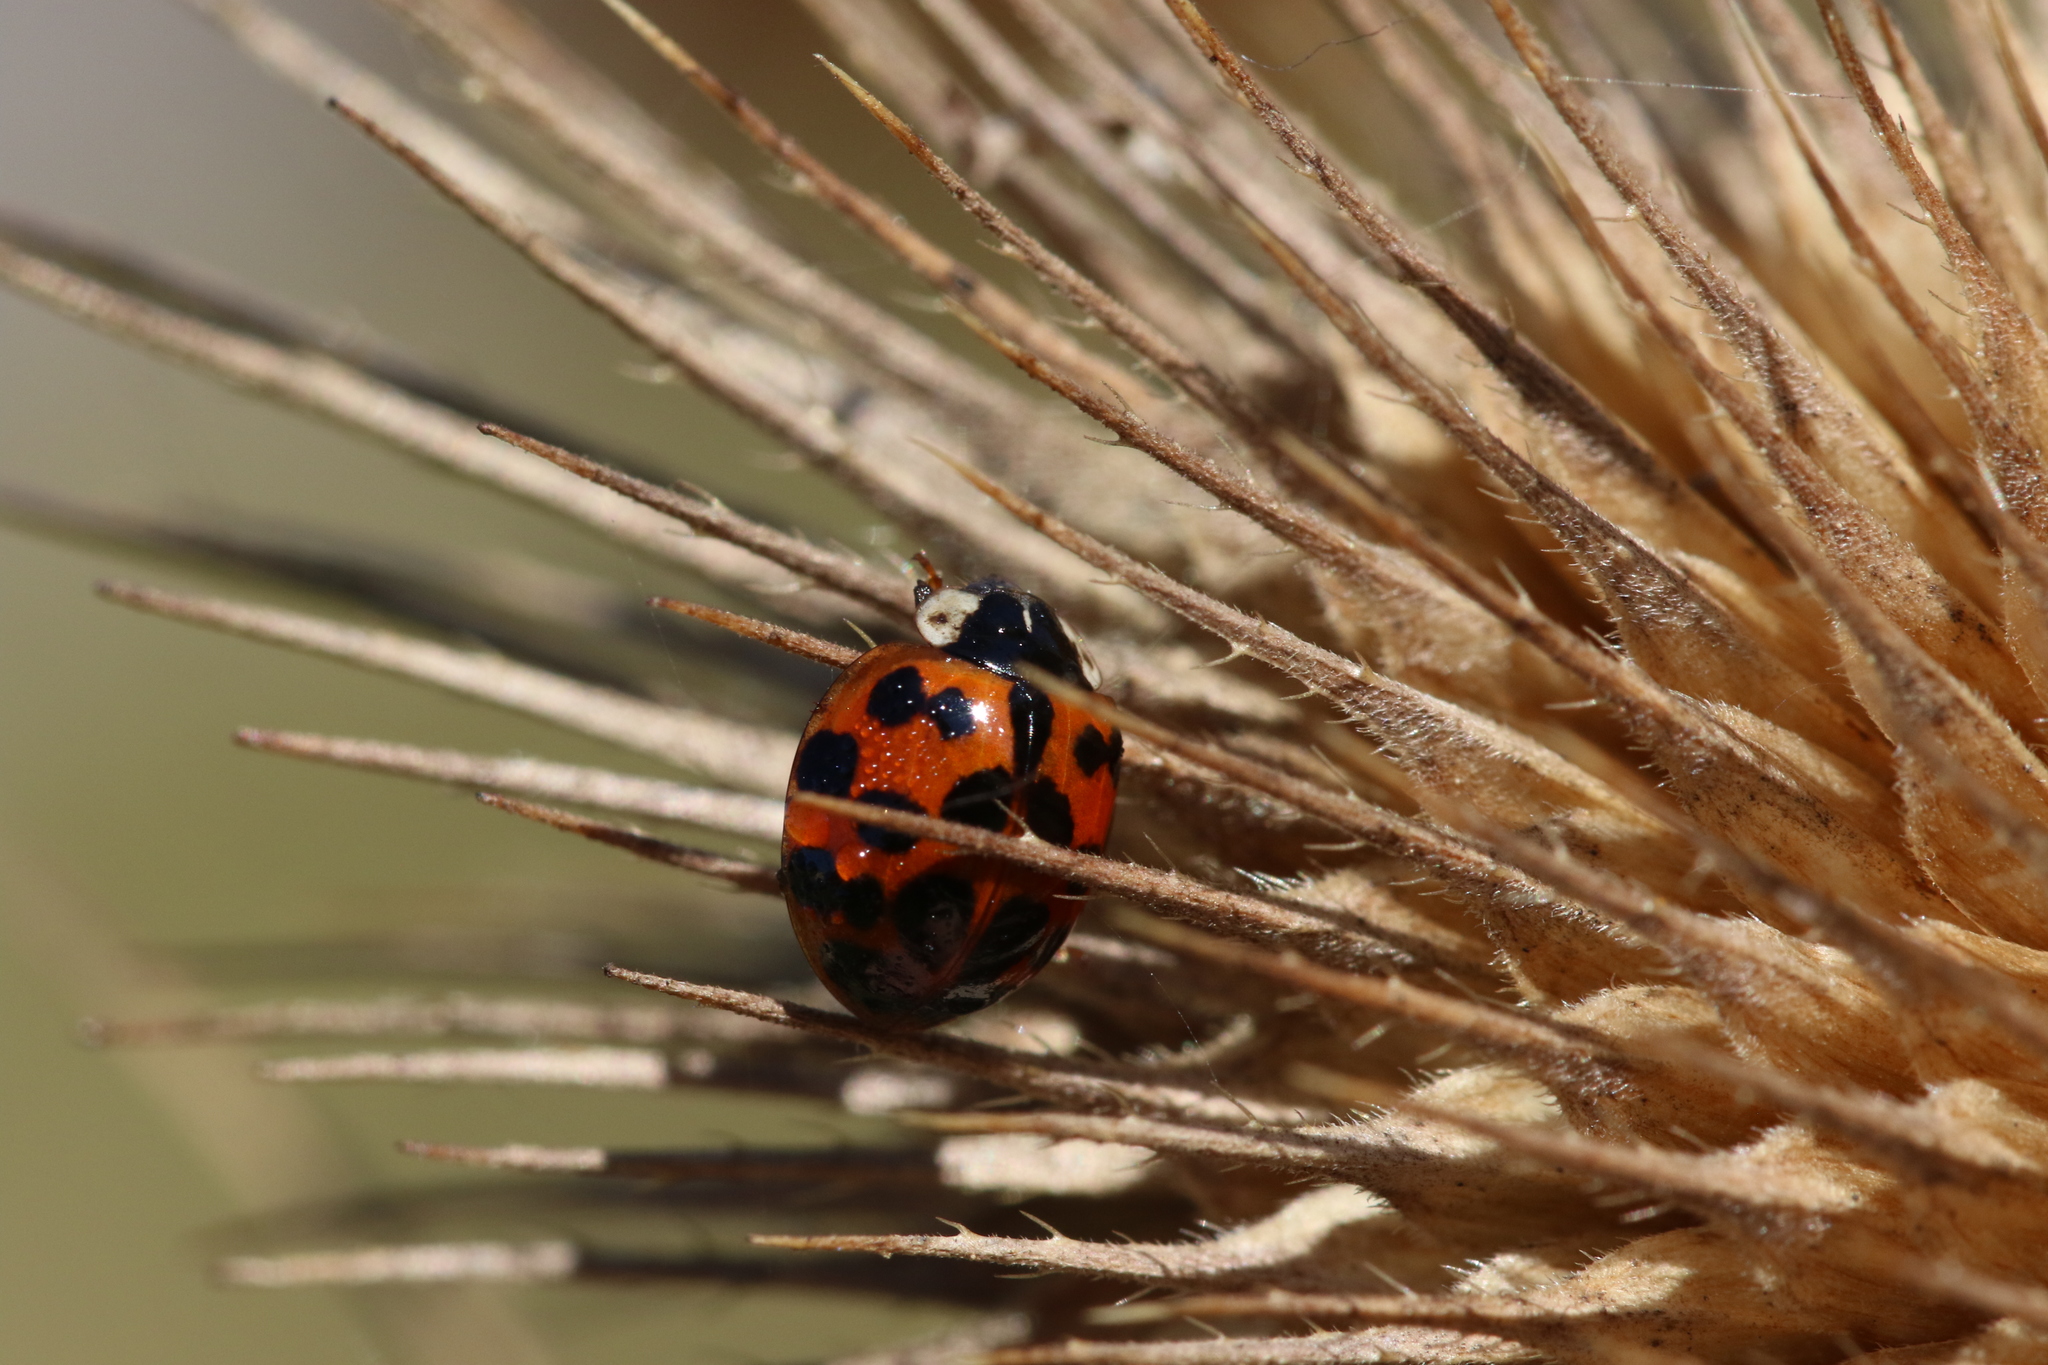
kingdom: Animalia
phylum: Arthropoda
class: Insecta
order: Coleoptera
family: Coccinellidae
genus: Harmonia
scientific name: Harmonia axyridis
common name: Harlequin ladybird
